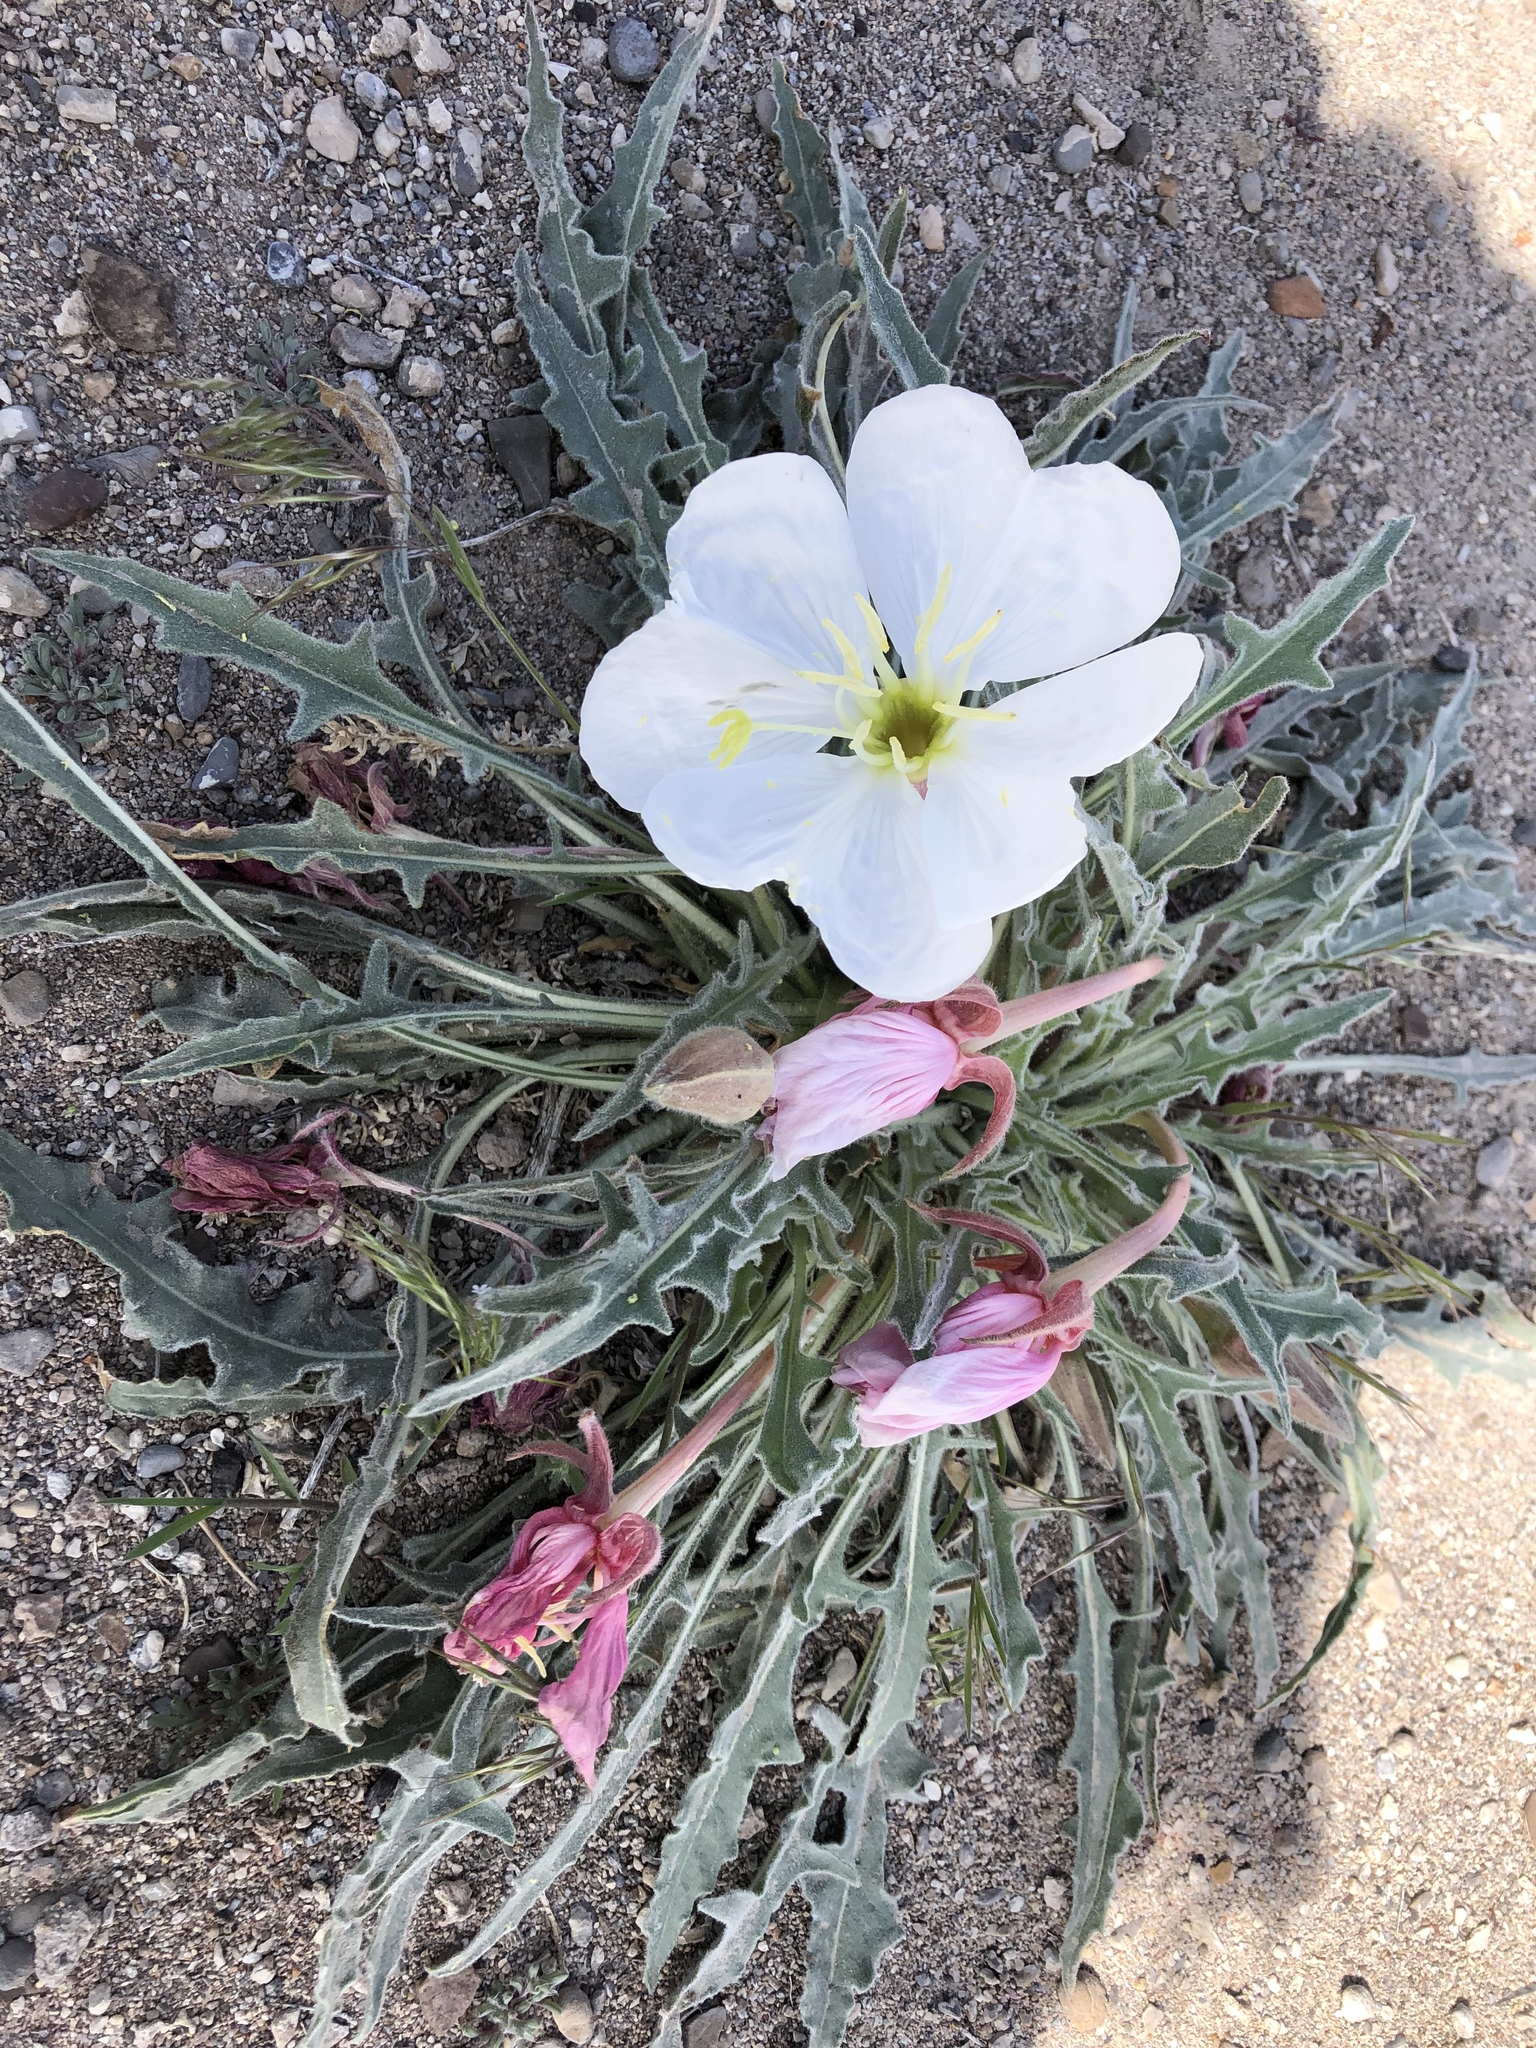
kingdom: Plantae
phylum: Tracheophyta
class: Magnoliopsida
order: Myrtales
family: Onagraceae
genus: Oenothera
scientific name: Oenothera cespitosa
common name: Tufted evening-primrose
